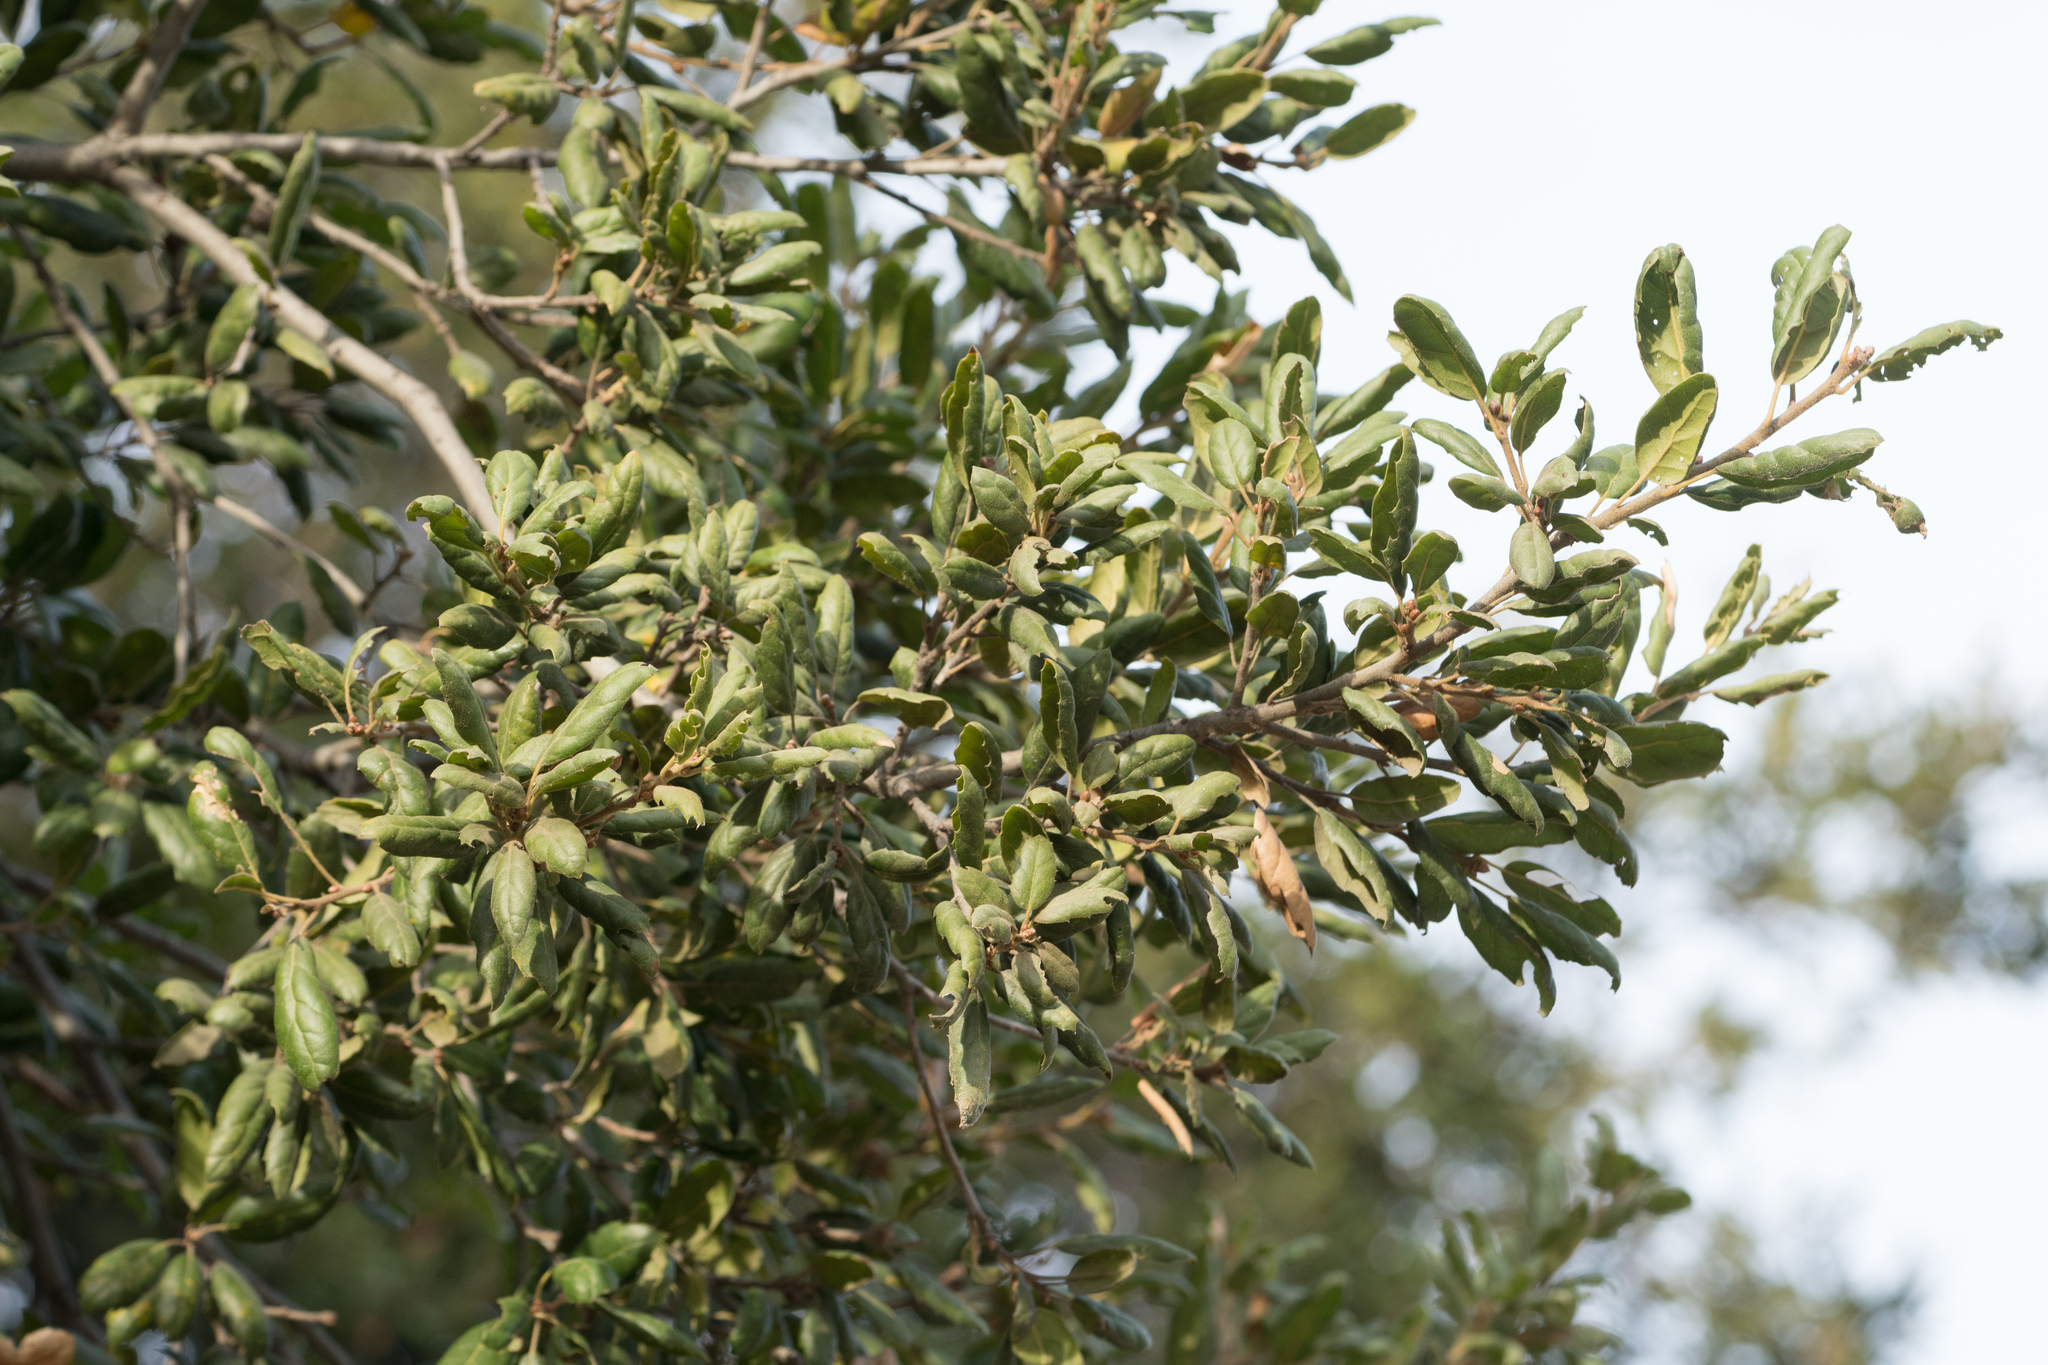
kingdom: Plantae
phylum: Tracheophyta
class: Magnoliopsida
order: Fagales
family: Fagaceae
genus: Quercus
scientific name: Quercus agrifolia
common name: California live oak
